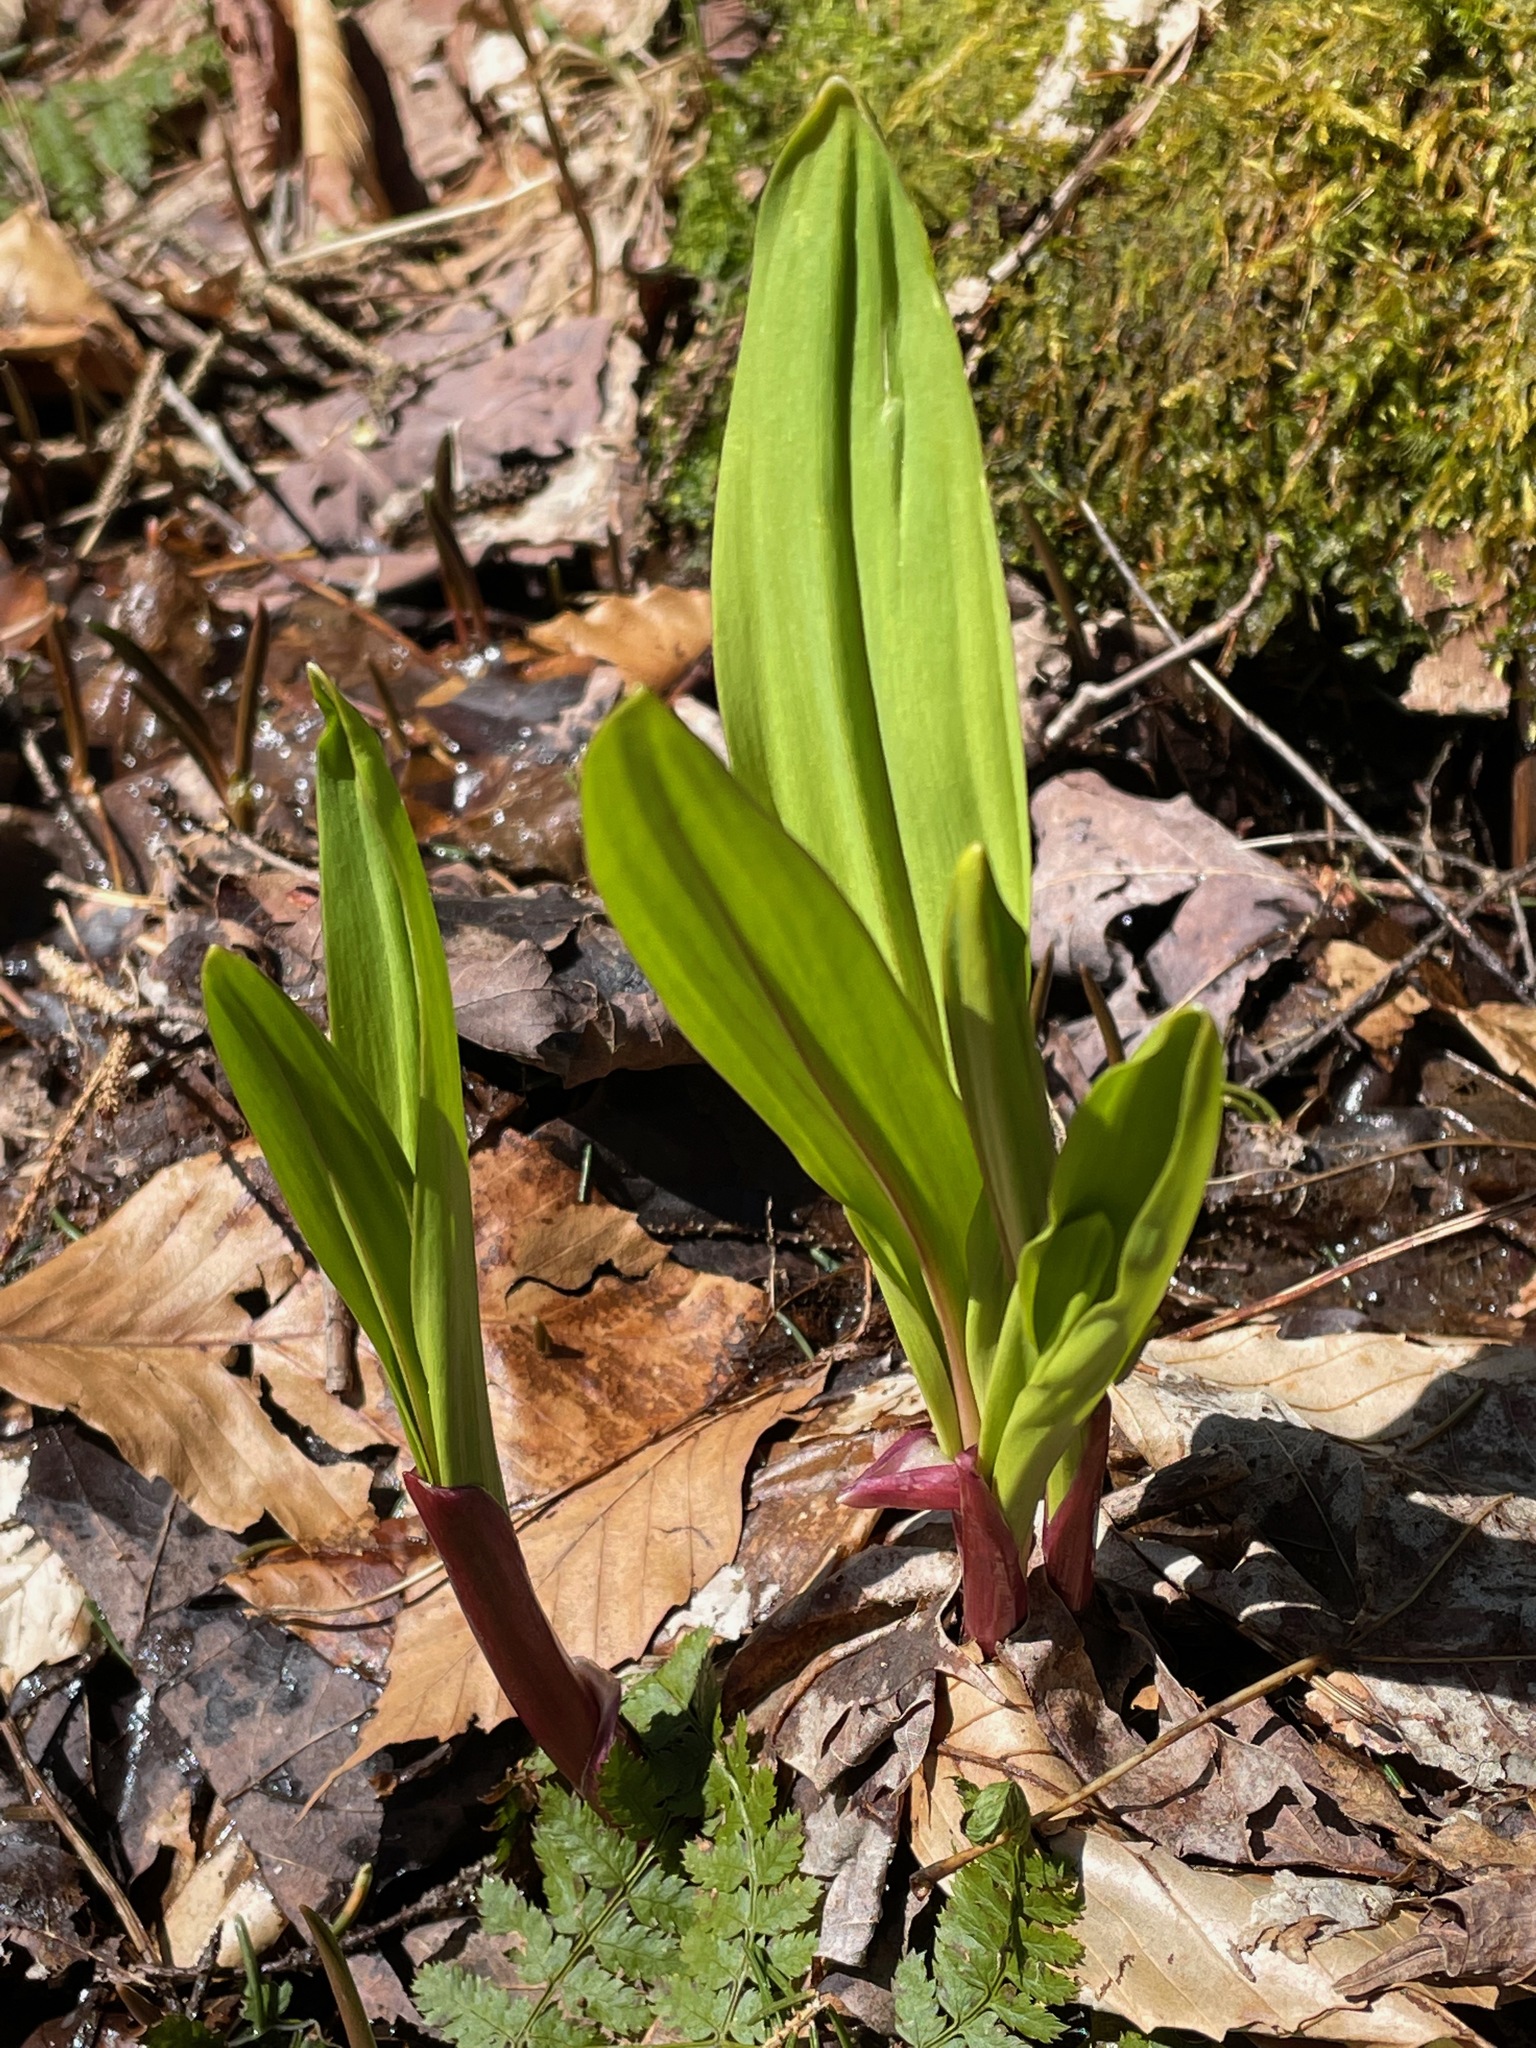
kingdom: Plantae
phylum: Tracheophyta
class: Liliopsida
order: Asparagales
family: Amaryllidaceae
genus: Allium
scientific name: Allium tricoccum
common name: Ramp
